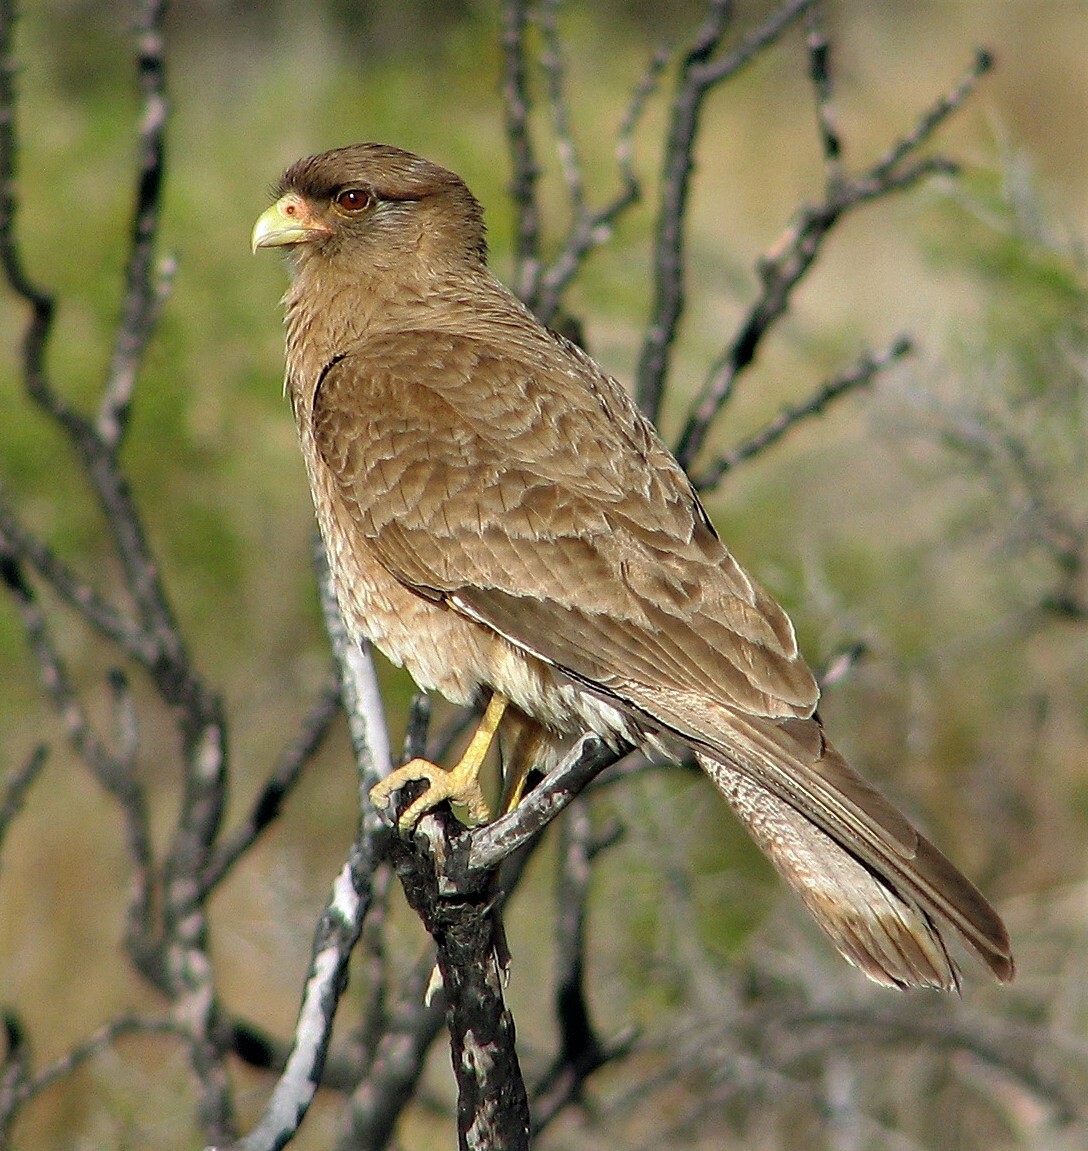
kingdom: Animalia
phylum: Chordata
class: Aves
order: Falconiformes
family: Falconidae
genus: Daptrius
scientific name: Daptrius
